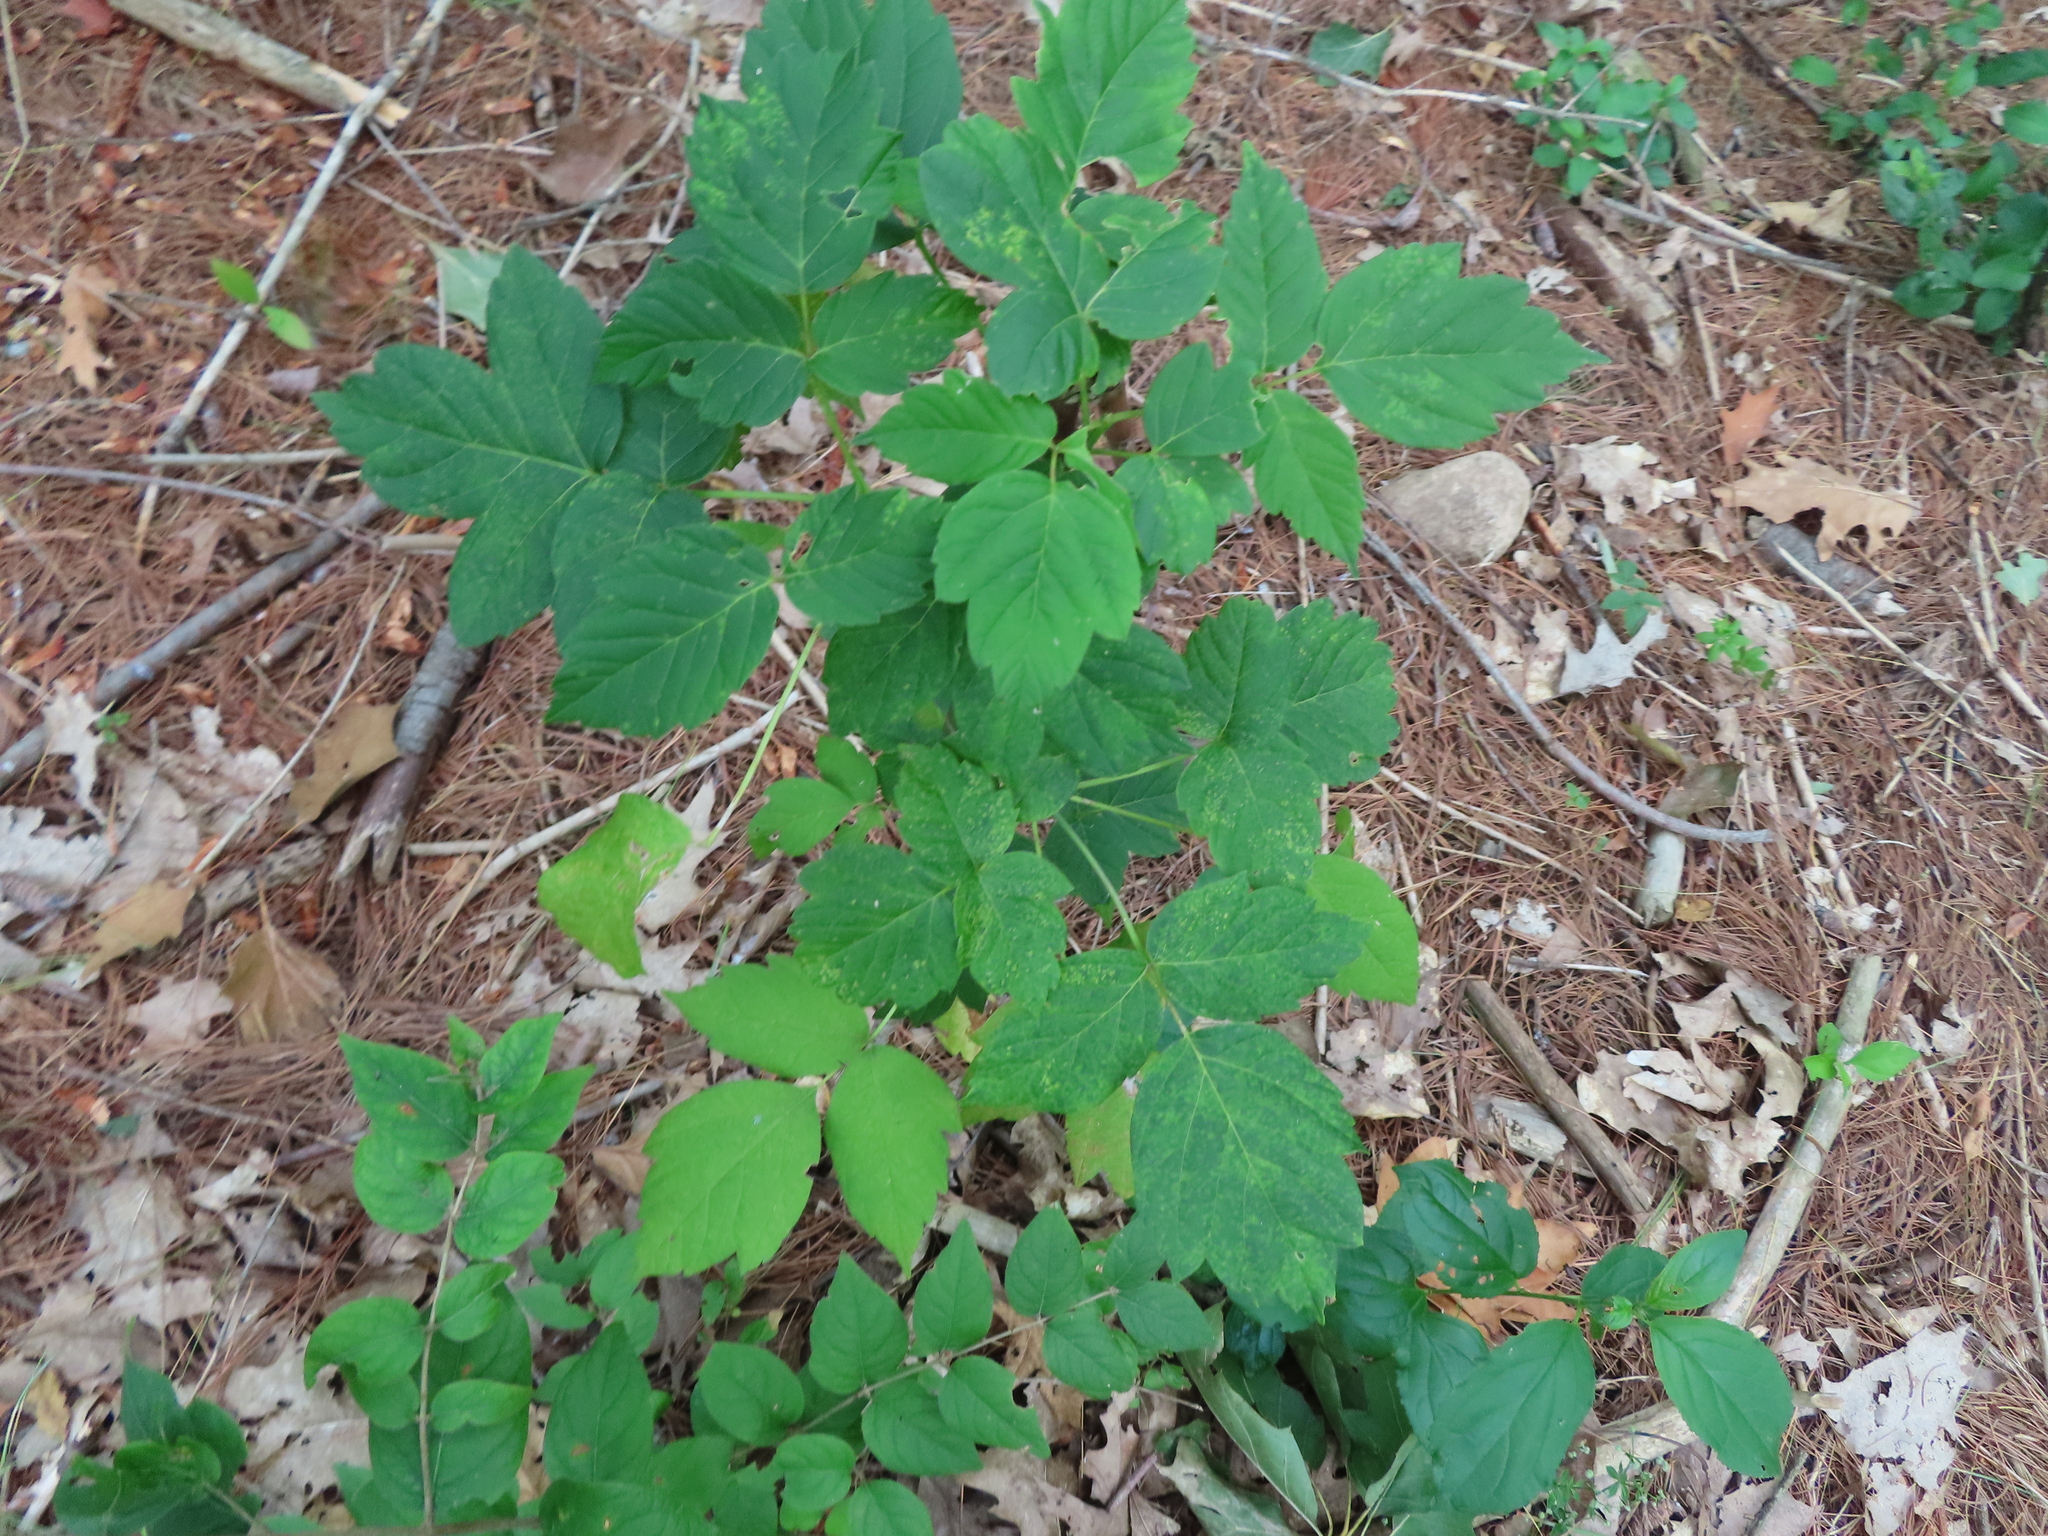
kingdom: Plantae
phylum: Tracheophyta
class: Magnoliopsida
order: Sapindales
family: Sapindaceae
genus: Acer
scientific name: Acer negundo
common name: Ashleaf maple
